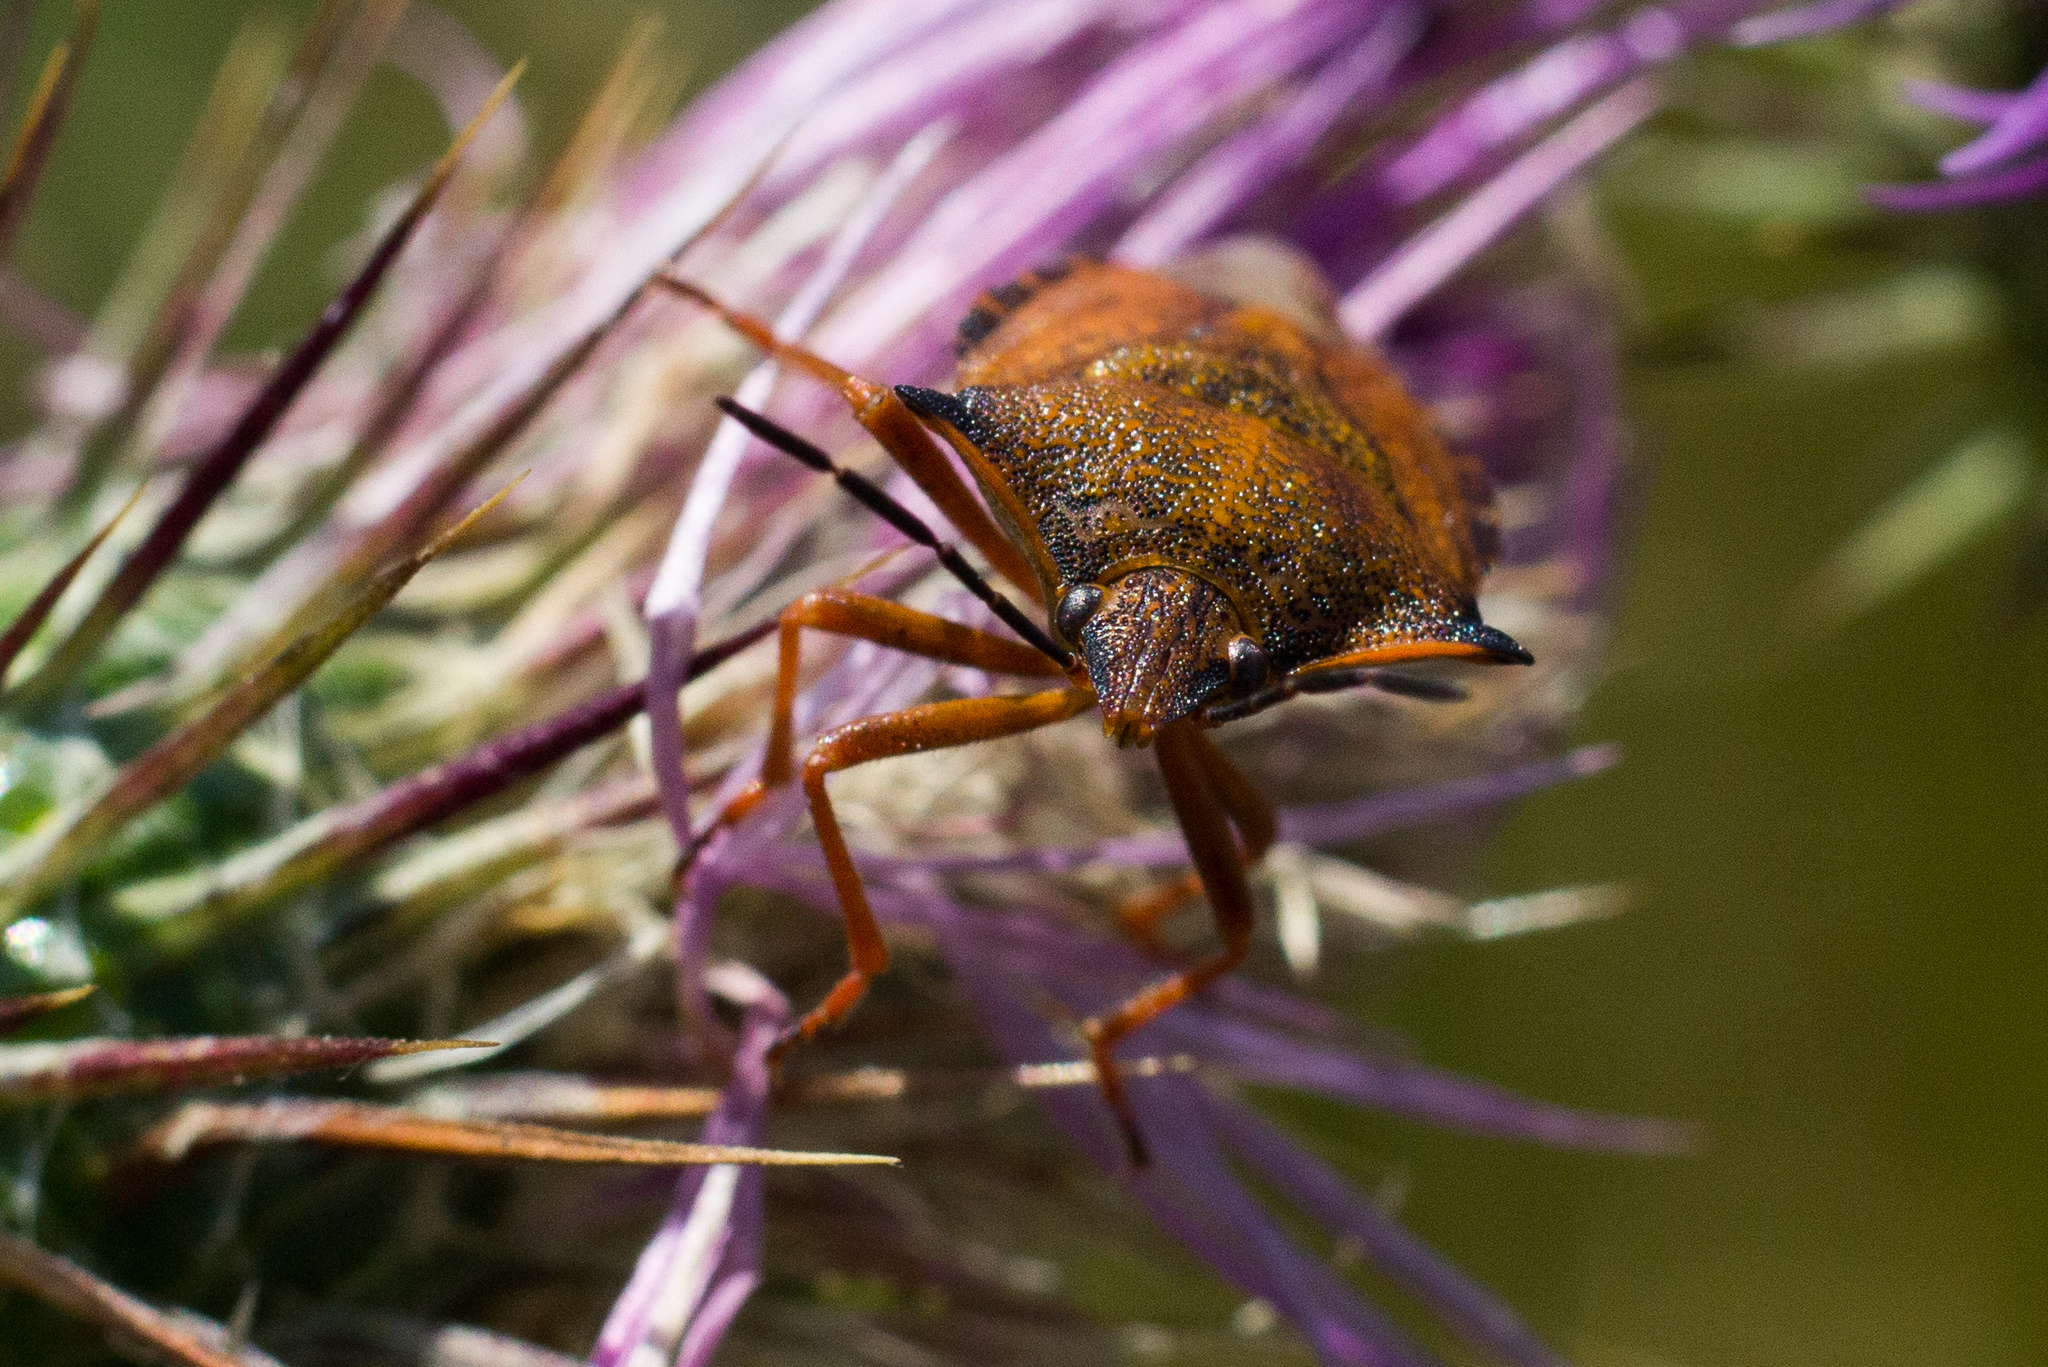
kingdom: Animalia
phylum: Arthropoda
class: Insecta
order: Hemiptera
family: Pentatomidae
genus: Carpocoris
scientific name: Carpocoris mediterraneus
